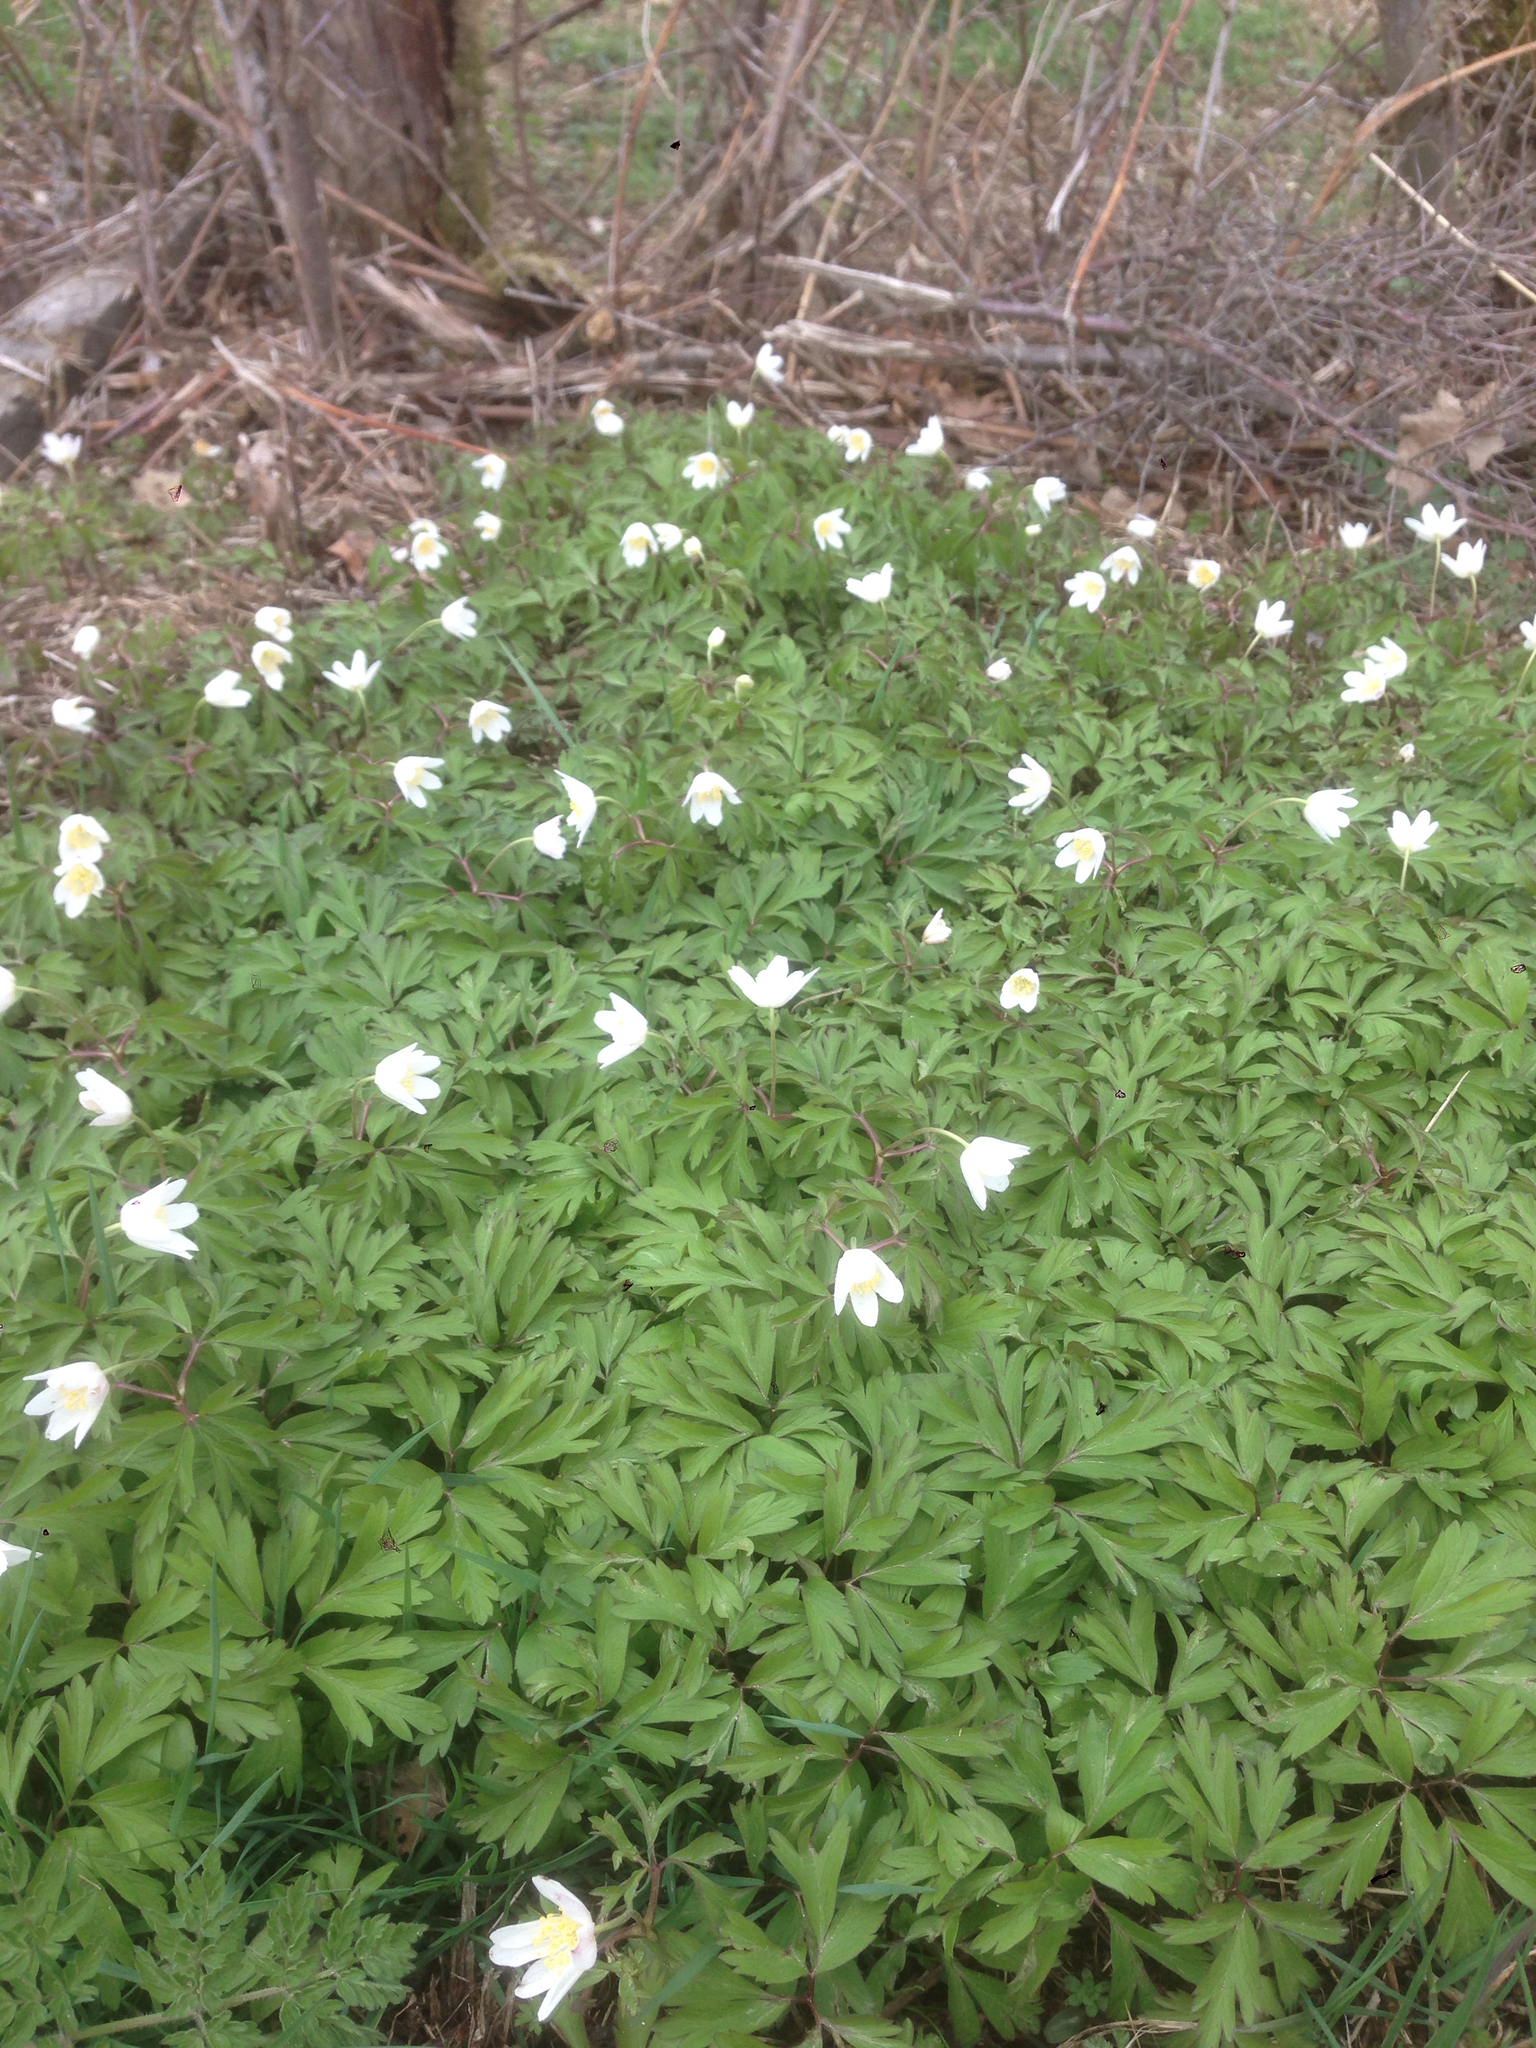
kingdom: Plantae
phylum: Tracheophyta
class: Magnoliopsida
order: Ranunculales
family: Ranunculaceae
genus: Anemone
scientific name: Anemone nemorosa
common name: Wood anemone
